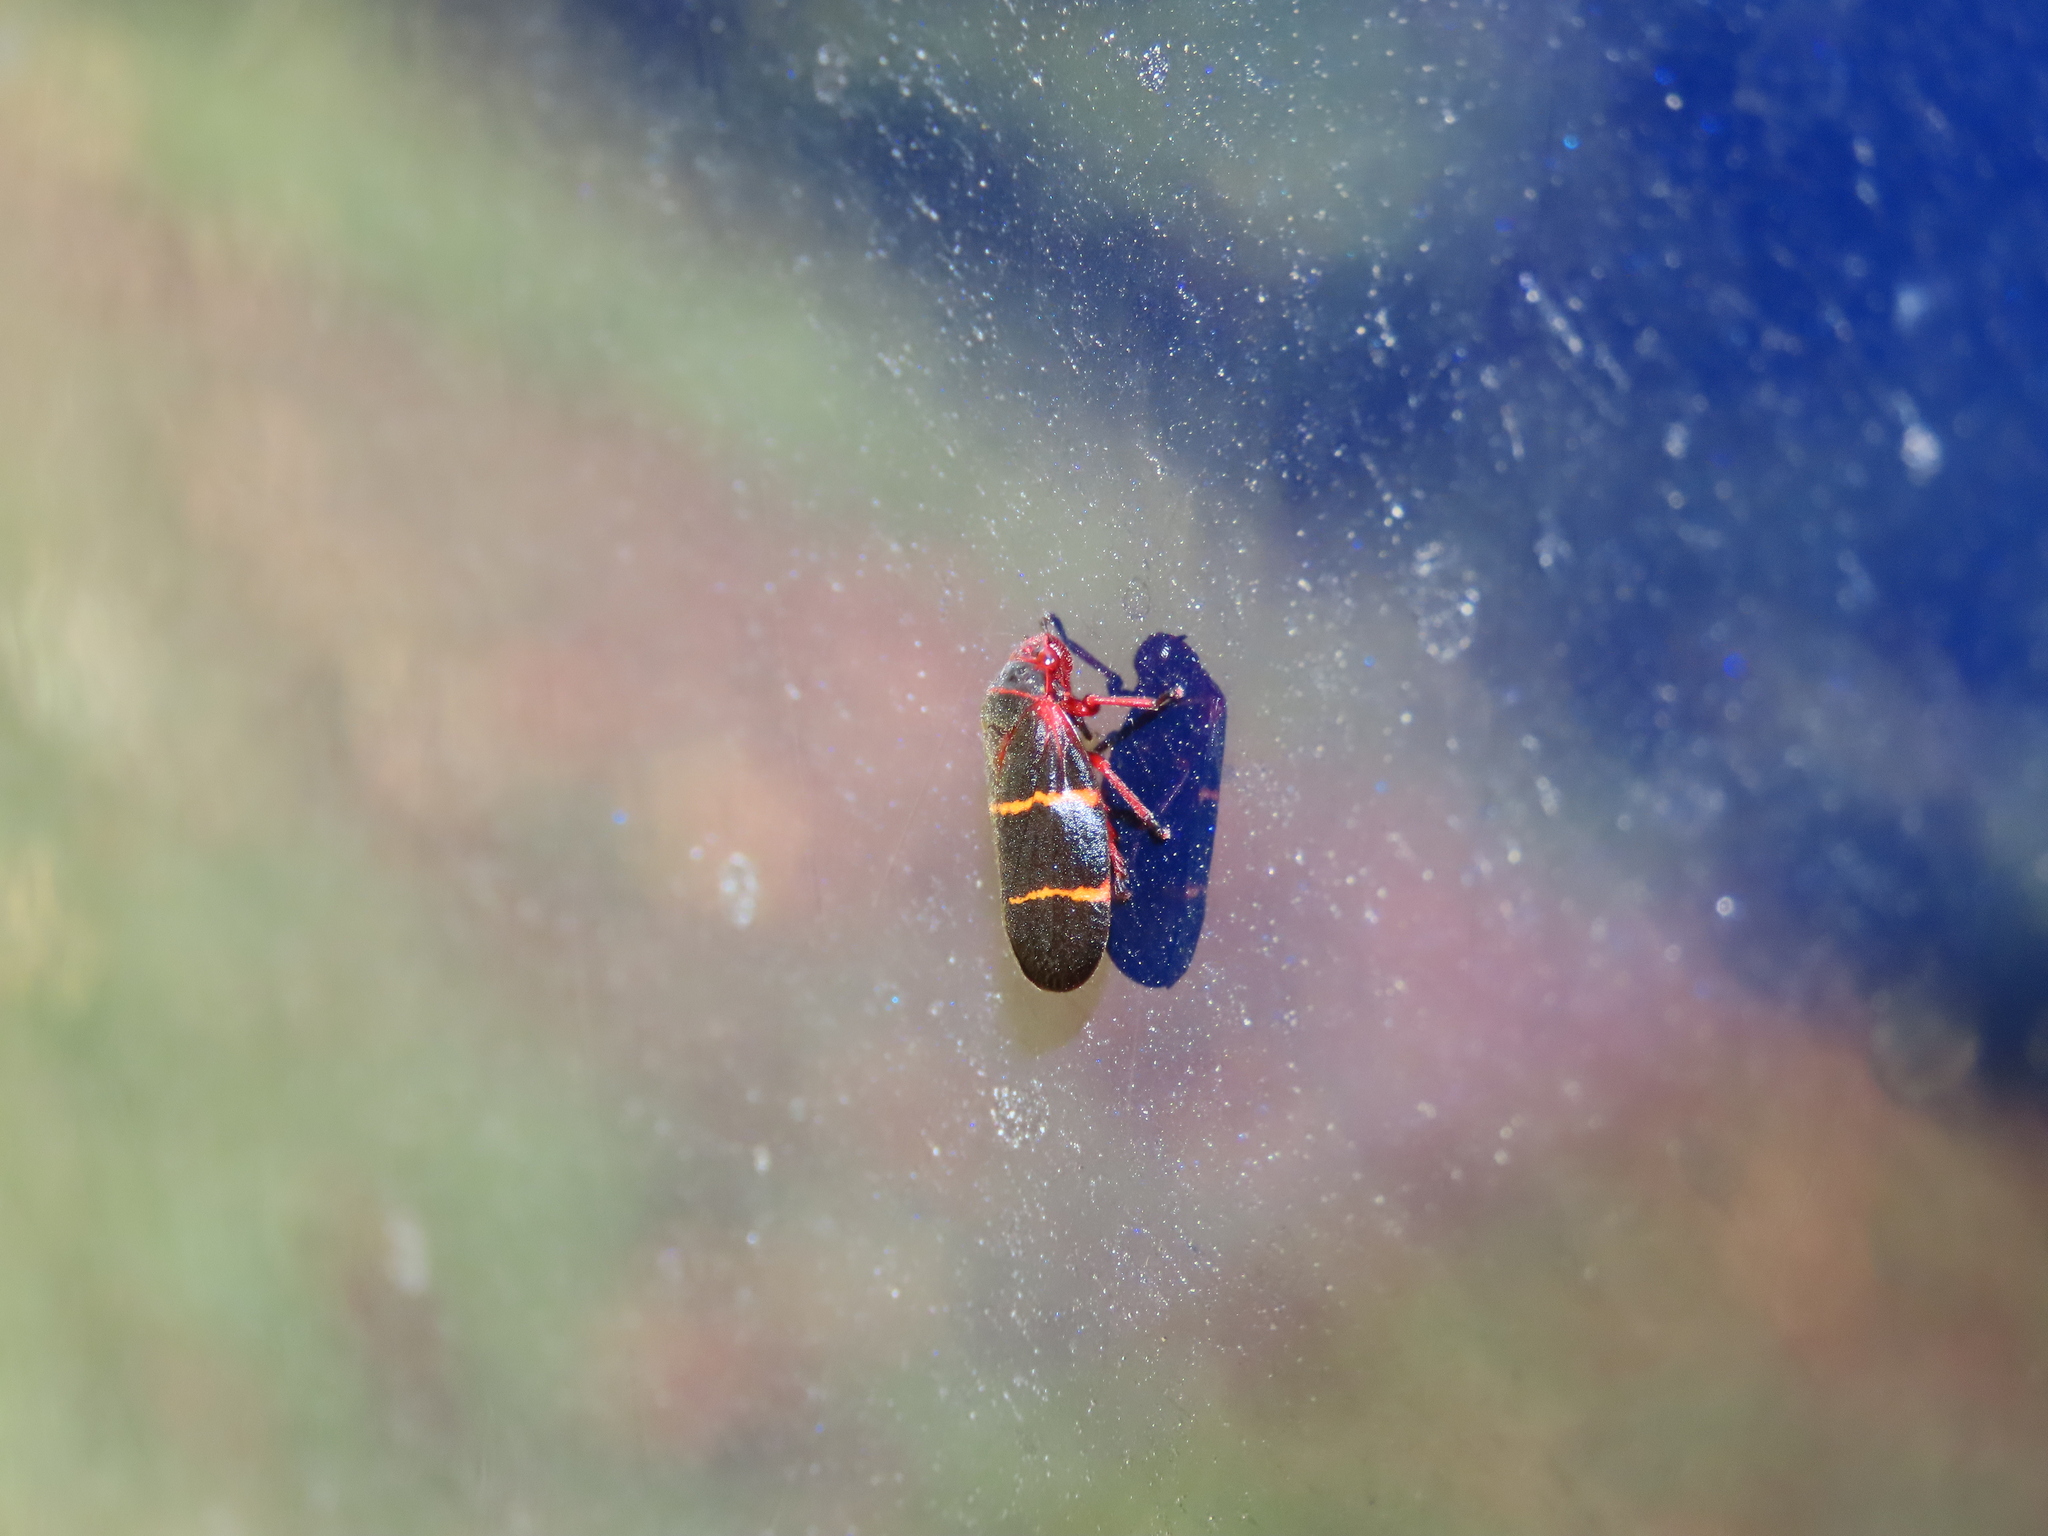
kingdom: Animalia
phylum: Arthropoda
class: Insecta
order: Hemiptera
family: Cercopidae
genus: Prosapia
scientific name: Prosapia bicincta
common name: Twolined spittlebug
